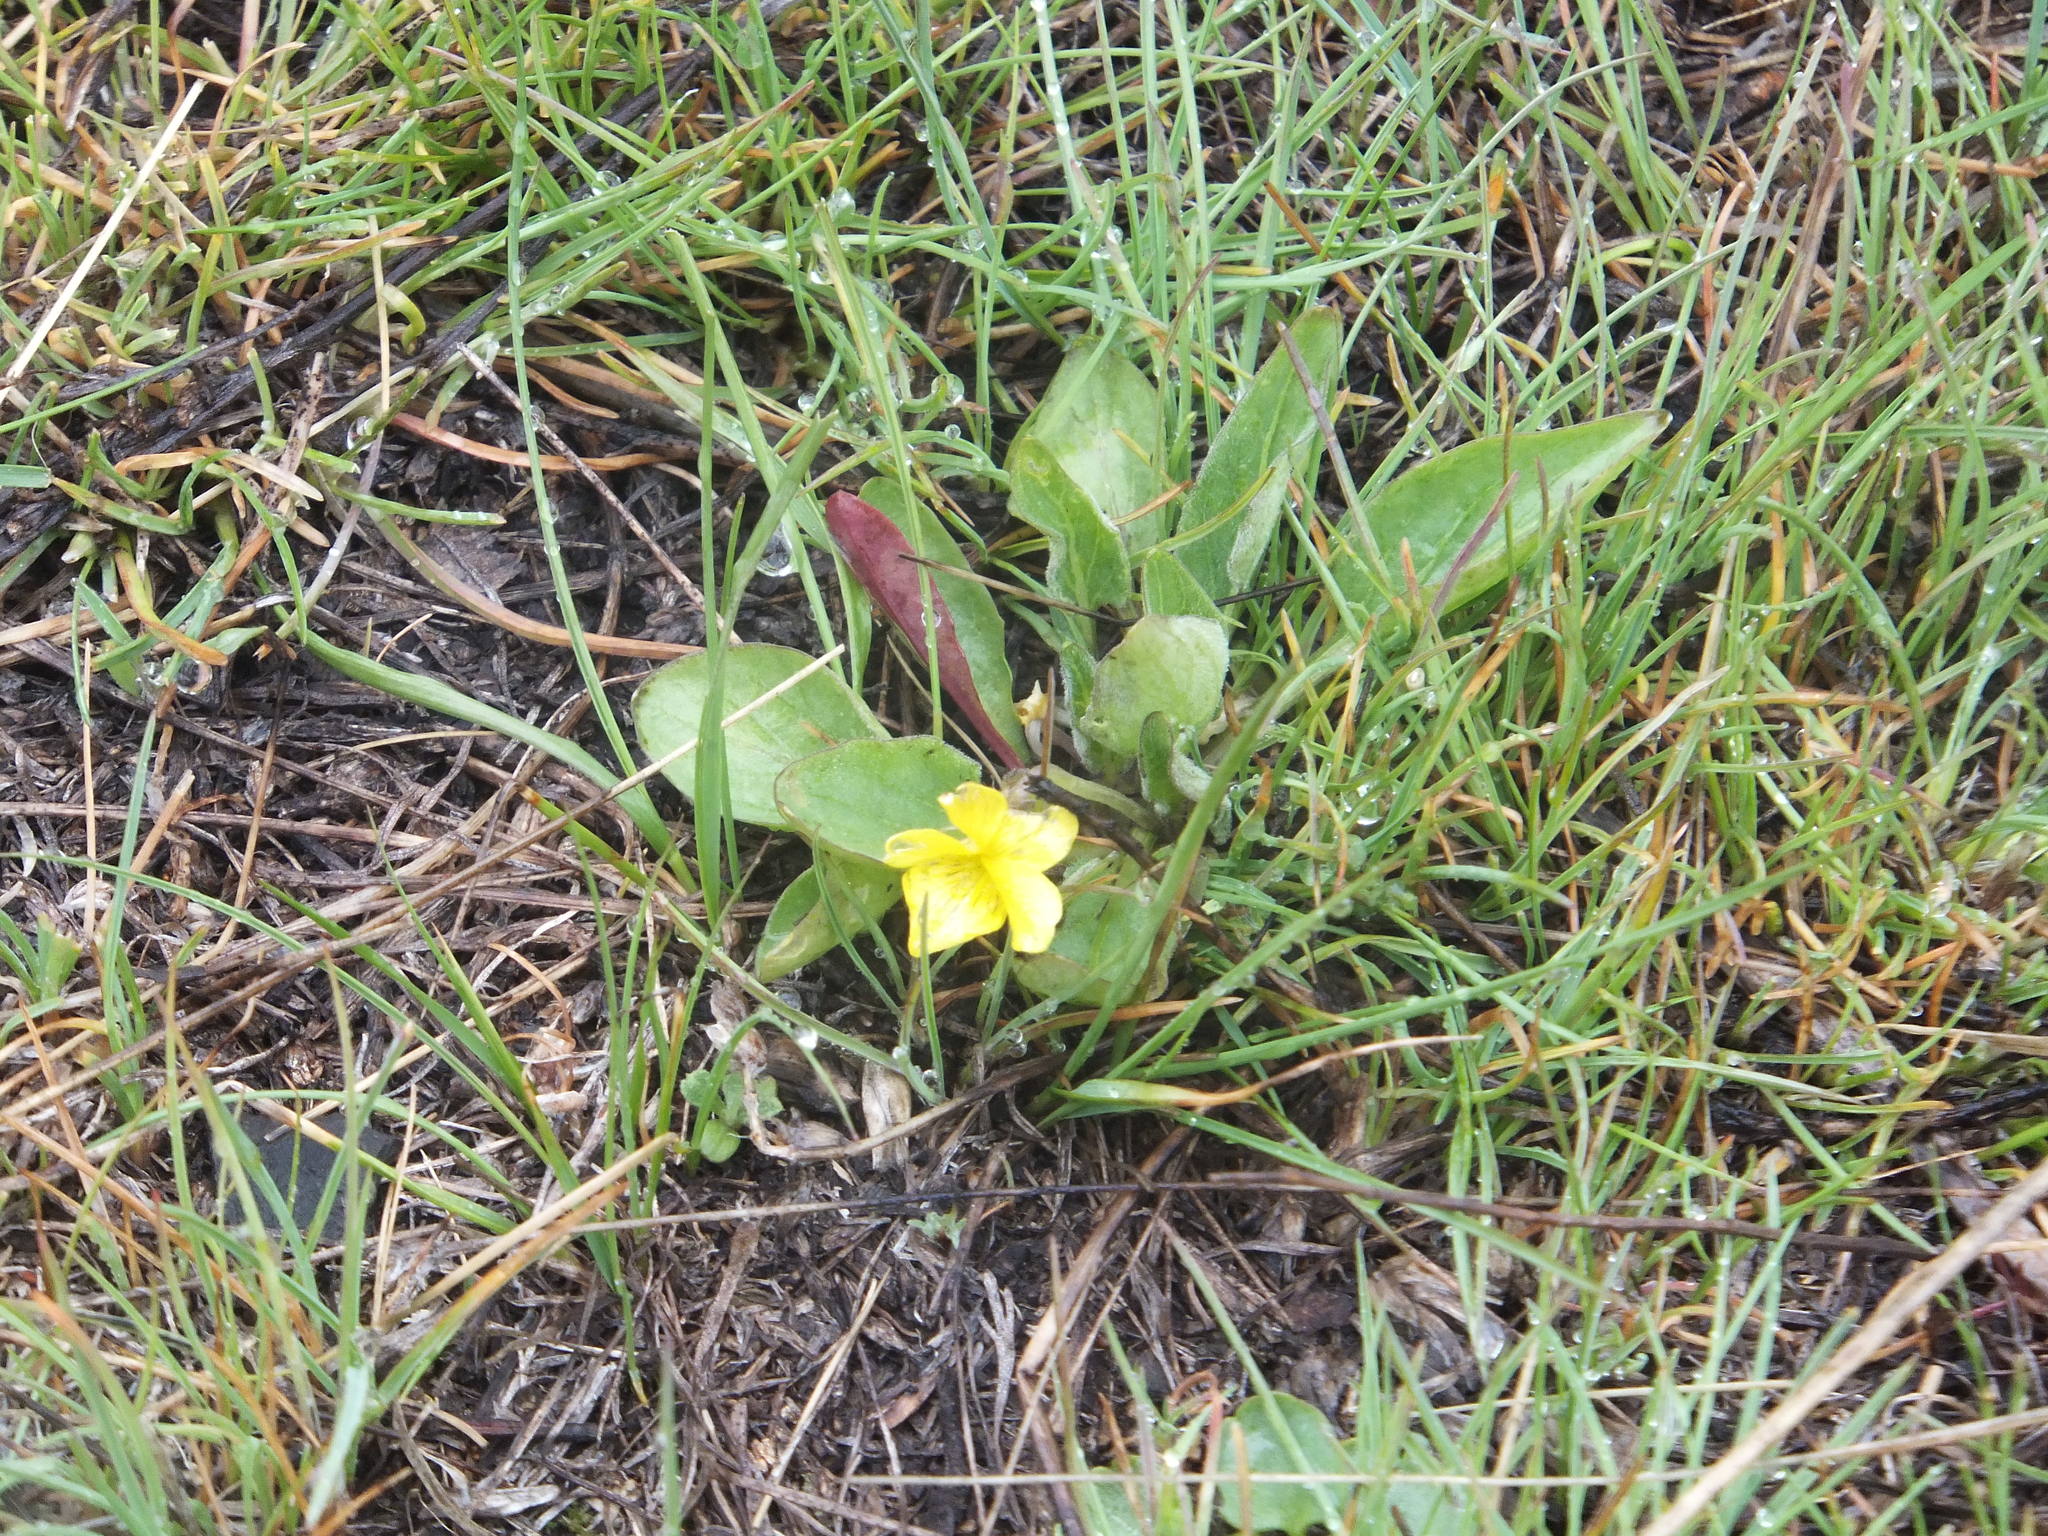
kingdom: Plantae
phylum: Tracheophyta
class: Magnoliopsida
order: Malpighiales
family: Violaceae
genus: Viola
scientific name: Viola vallicola
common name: Valley violet
